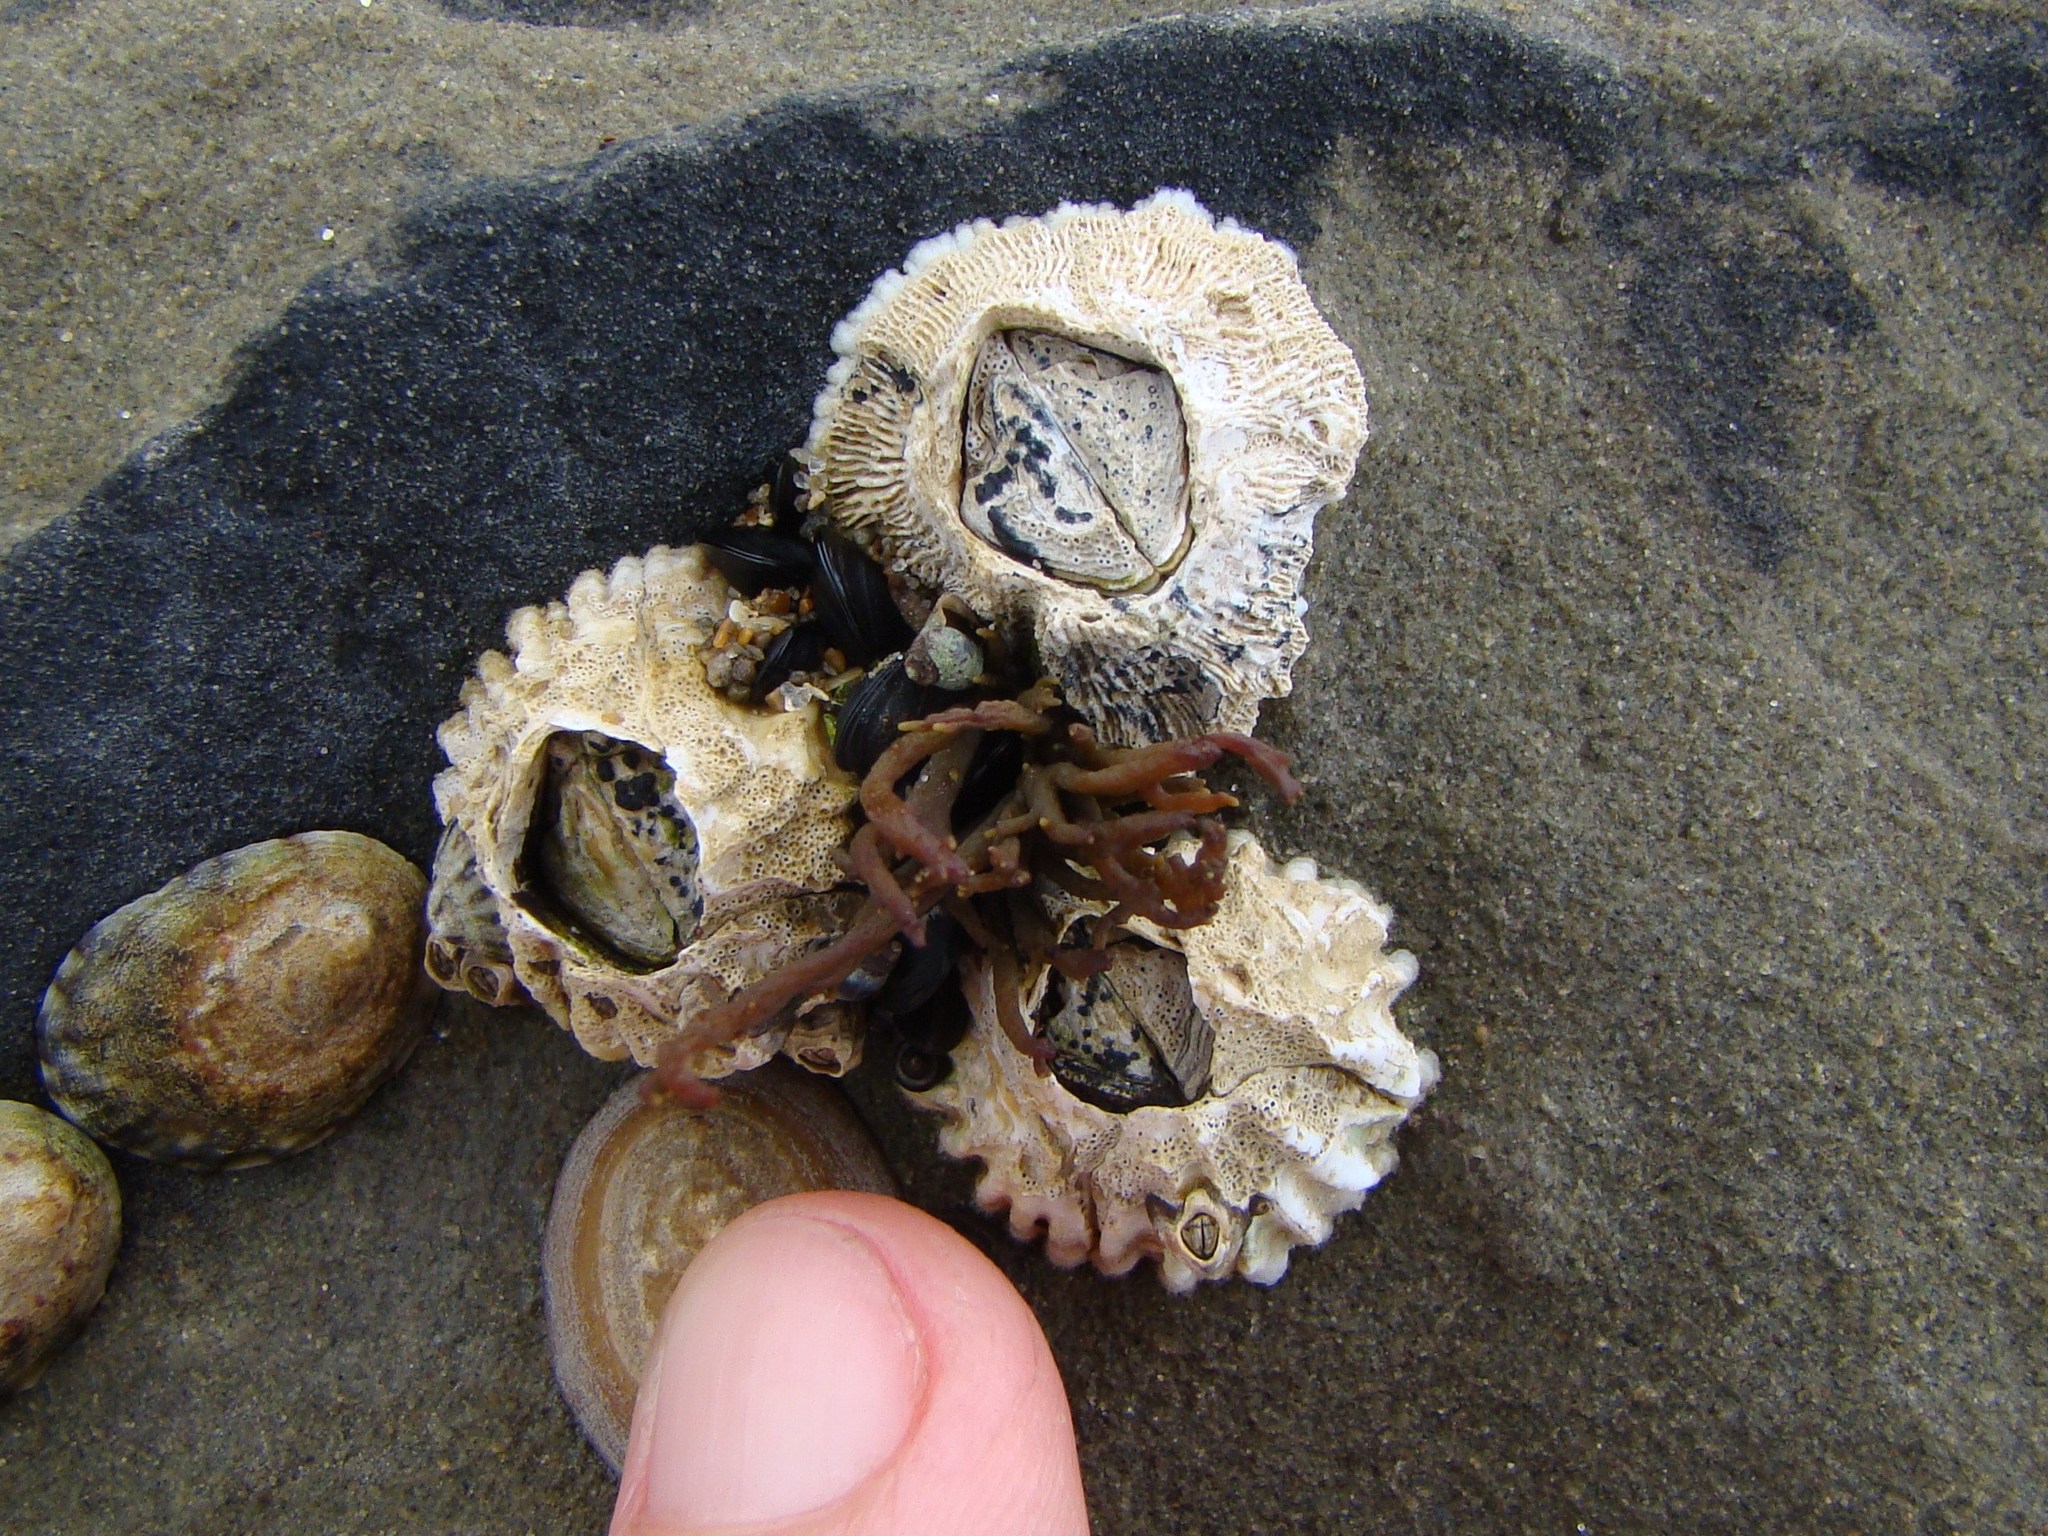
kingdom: Animalia
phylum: Arthropoda
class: Maxillopoda
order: Sessilia
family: Tetraclitidae
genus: Epopella
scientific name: Epopella plicata
